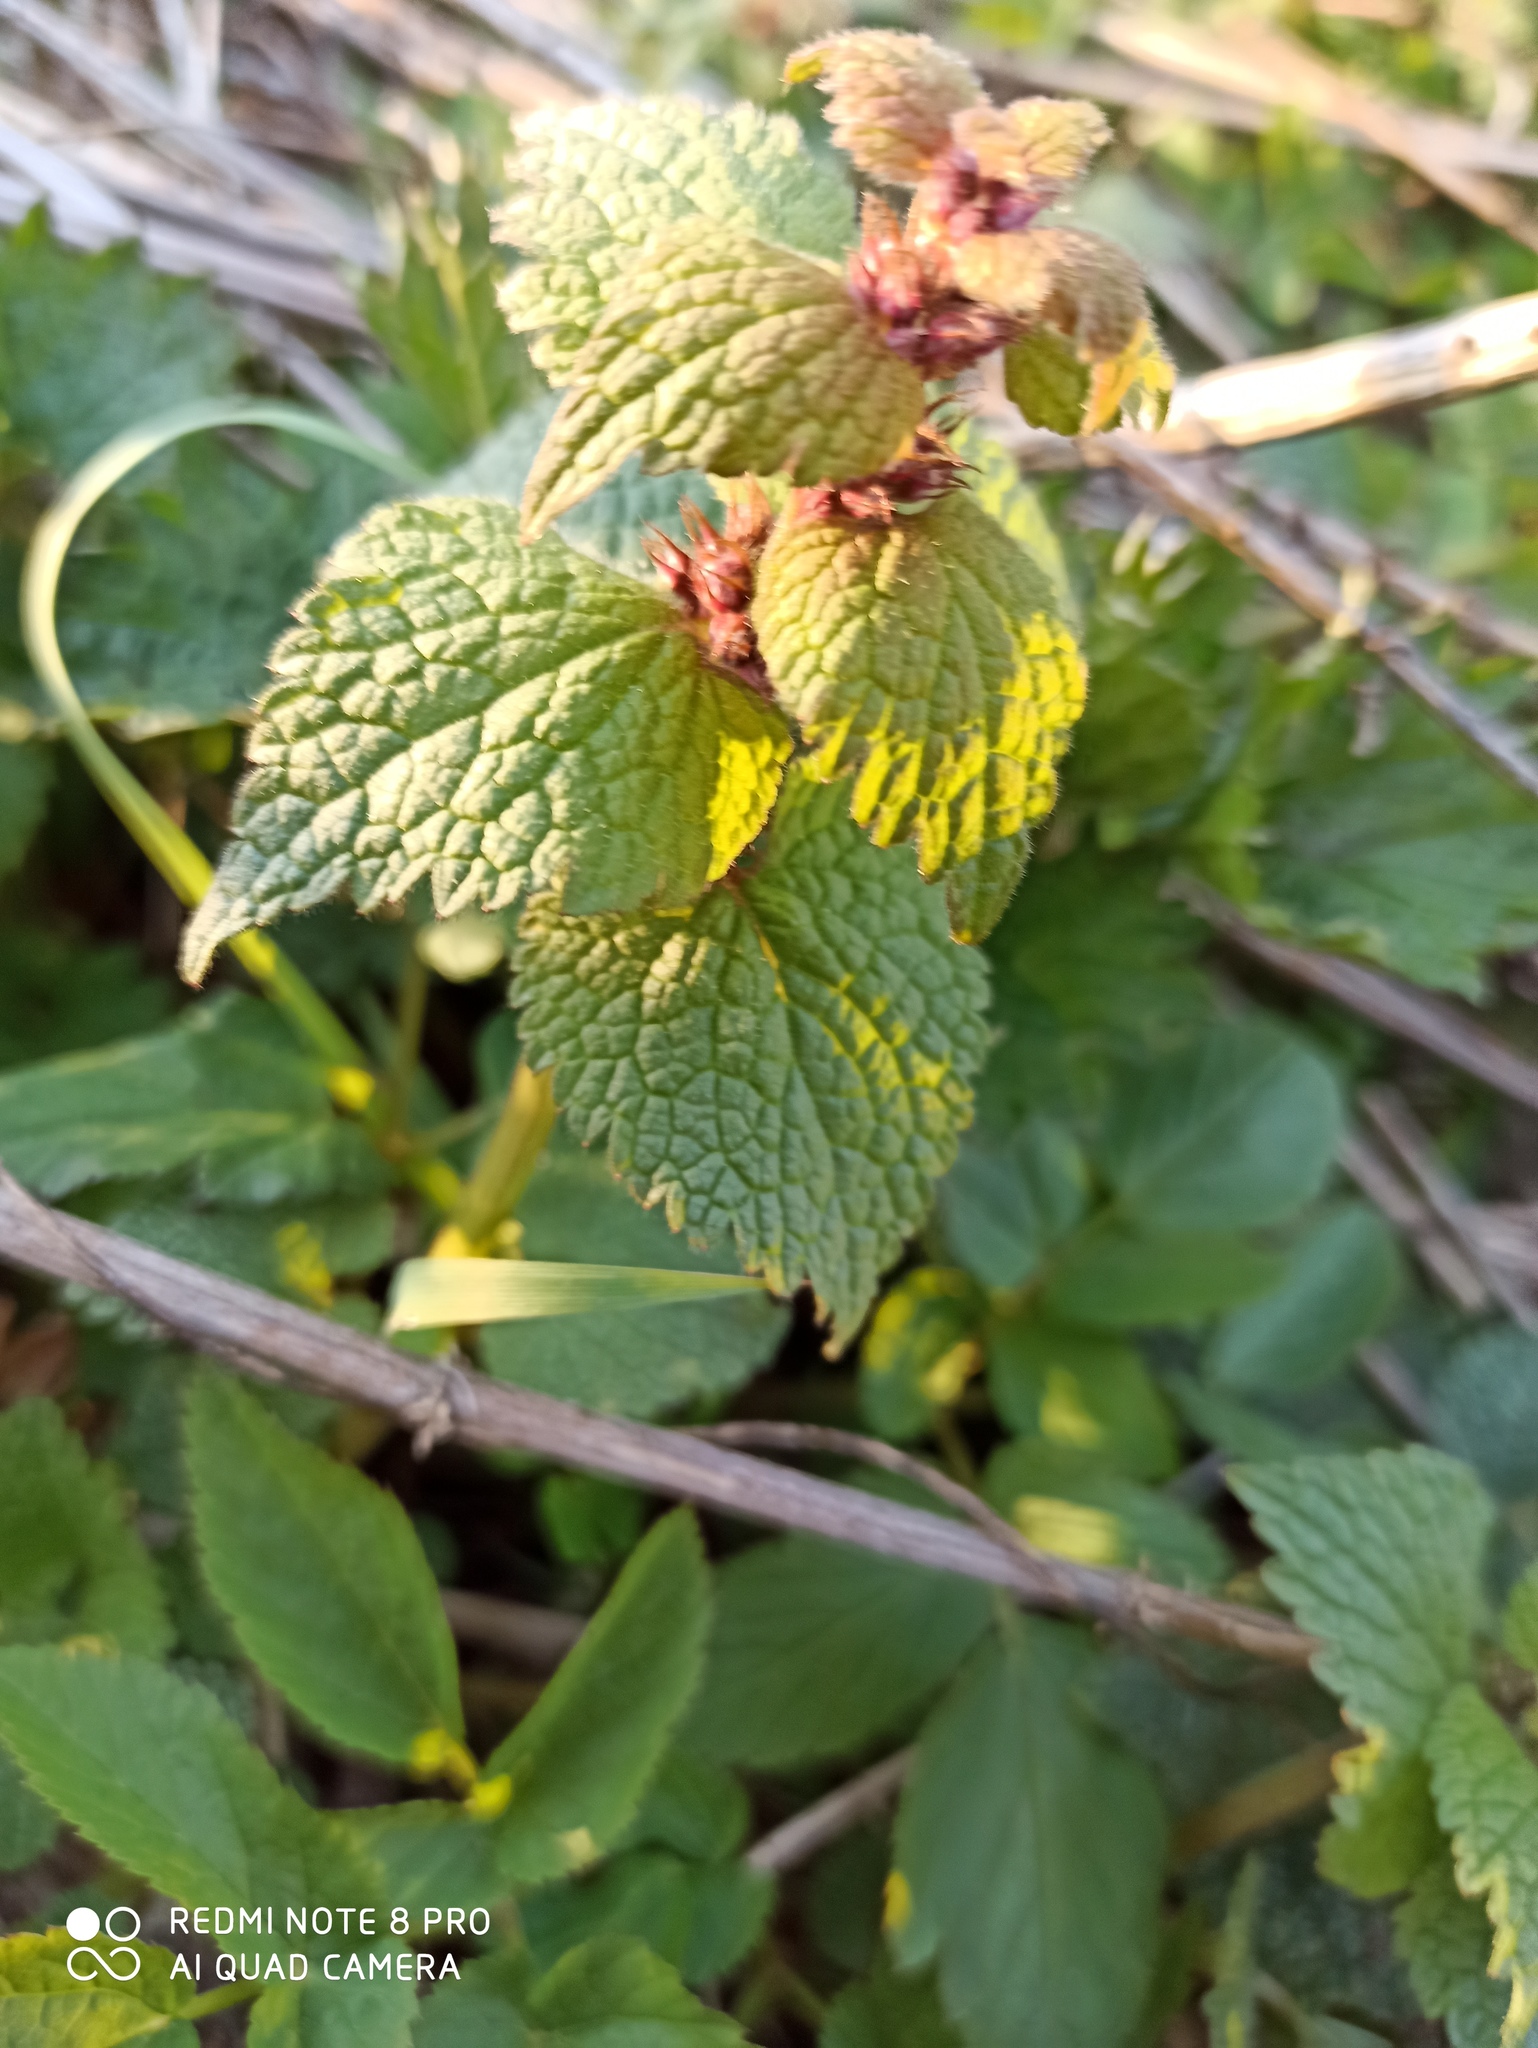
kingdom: Plantae
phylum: Tracheophyta
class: Magnoliopsida
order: Lamiales
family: Lamiaceae
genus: Lamium
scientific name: Lamium maculatum
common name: Spotted dead-nettle
